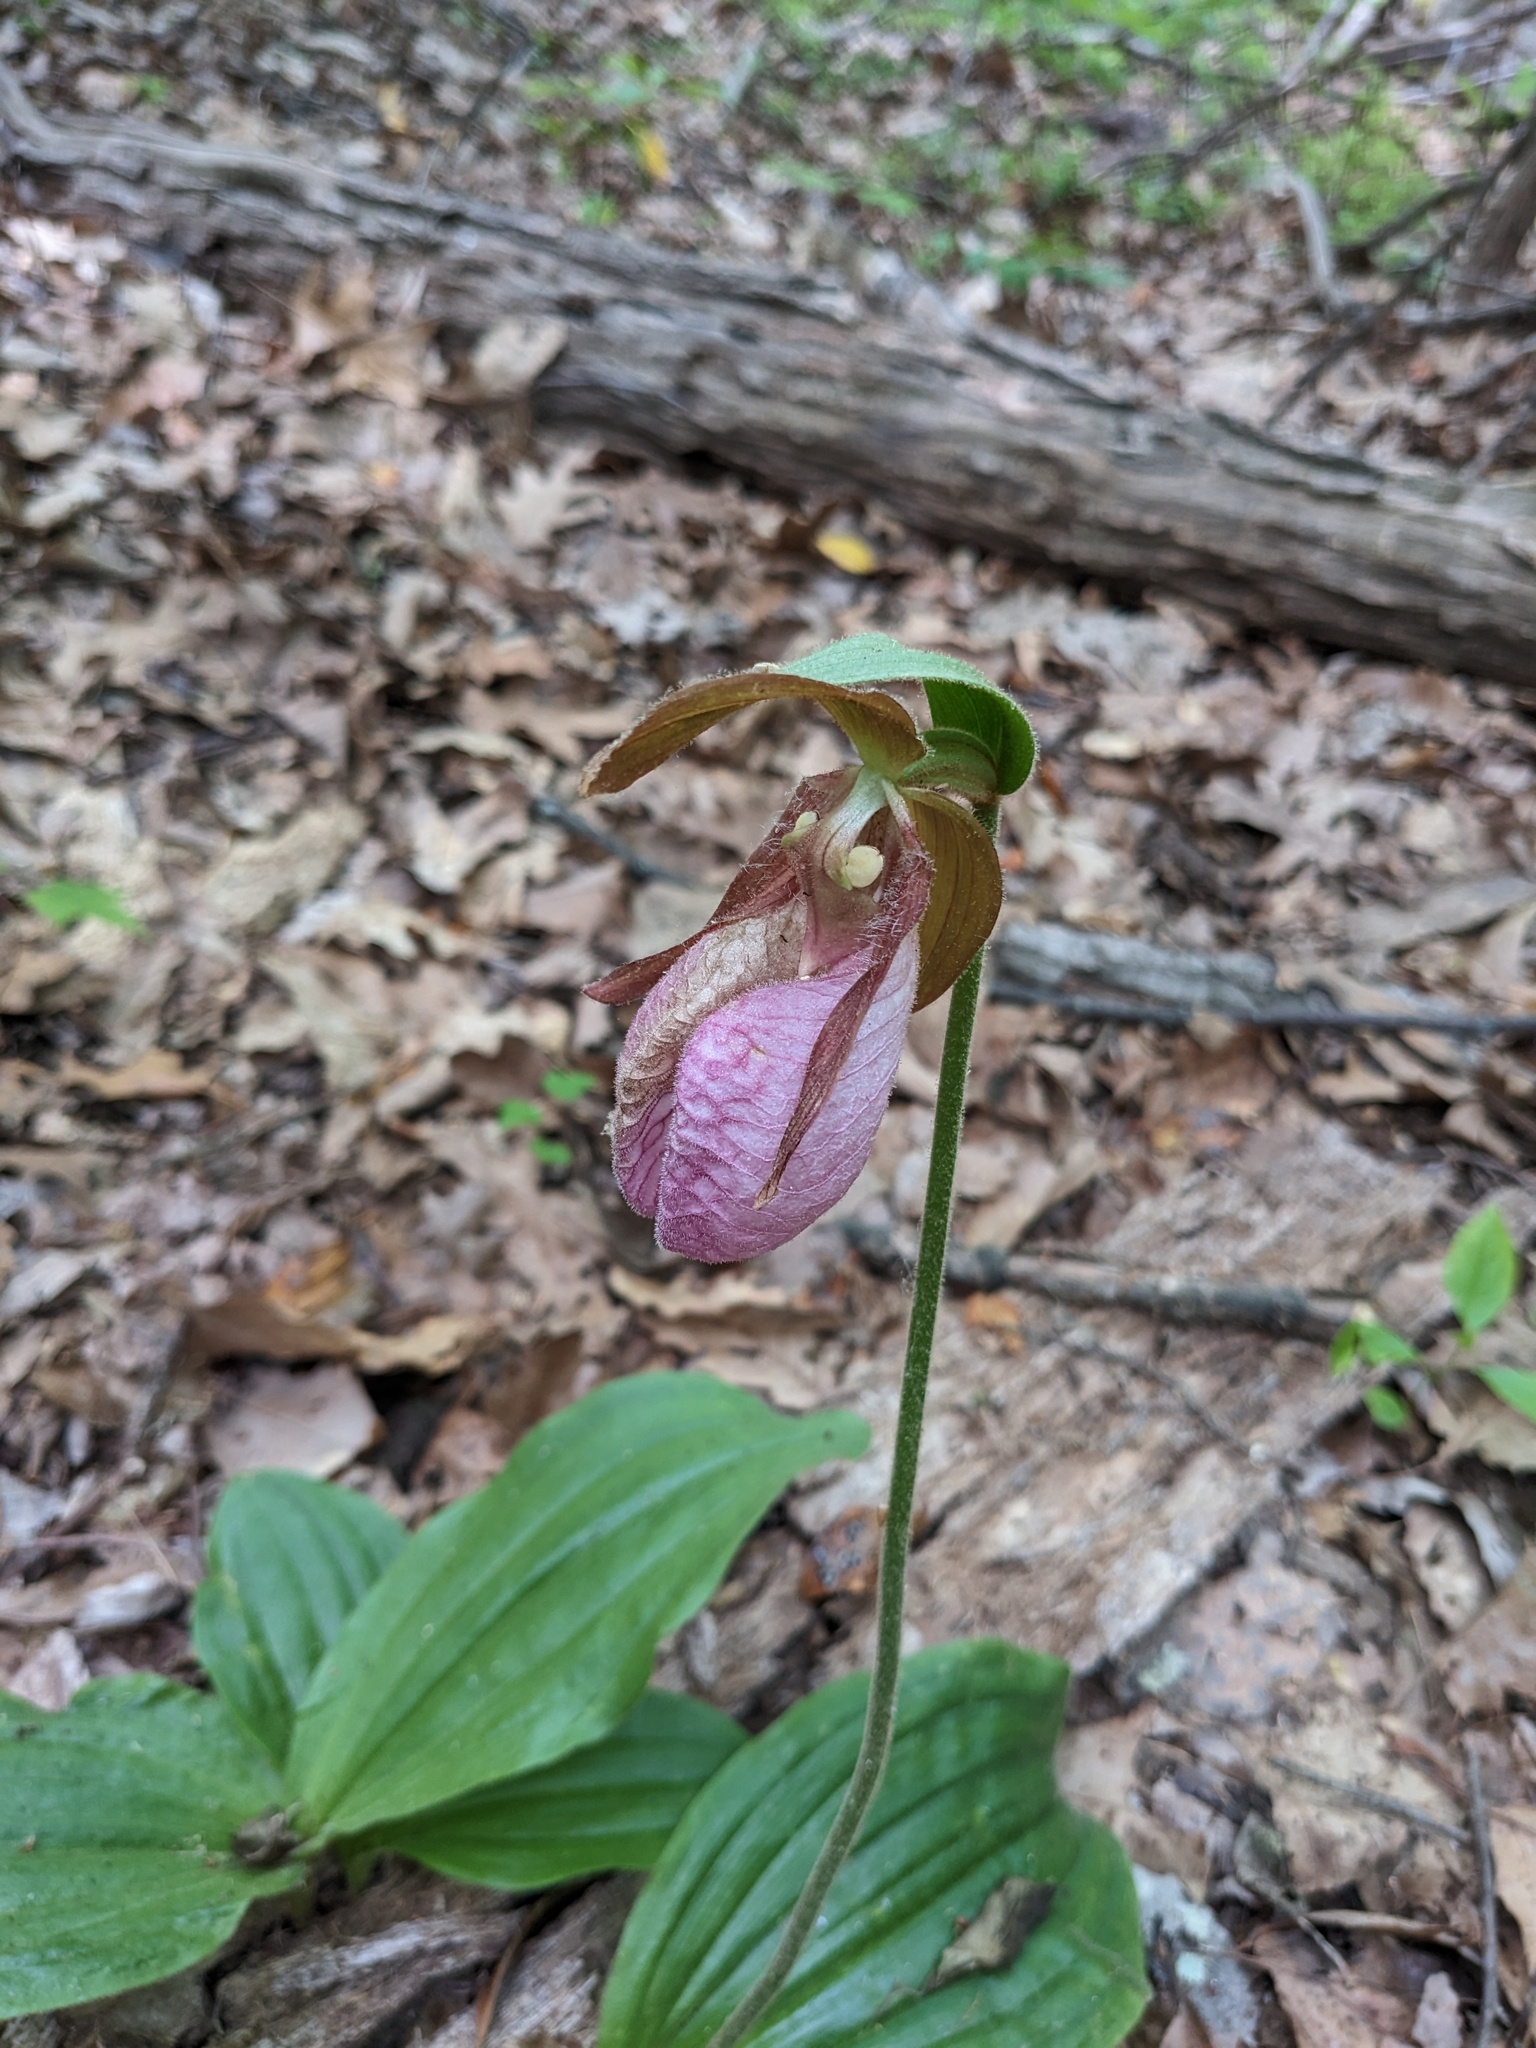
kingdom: Plantae
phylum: Tracheophyta
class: Liliopsida
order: Asparagales
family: Orchidaceae
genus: Cypripedium
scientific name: Cypripedium acaule
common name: Pink lady's-slipper
